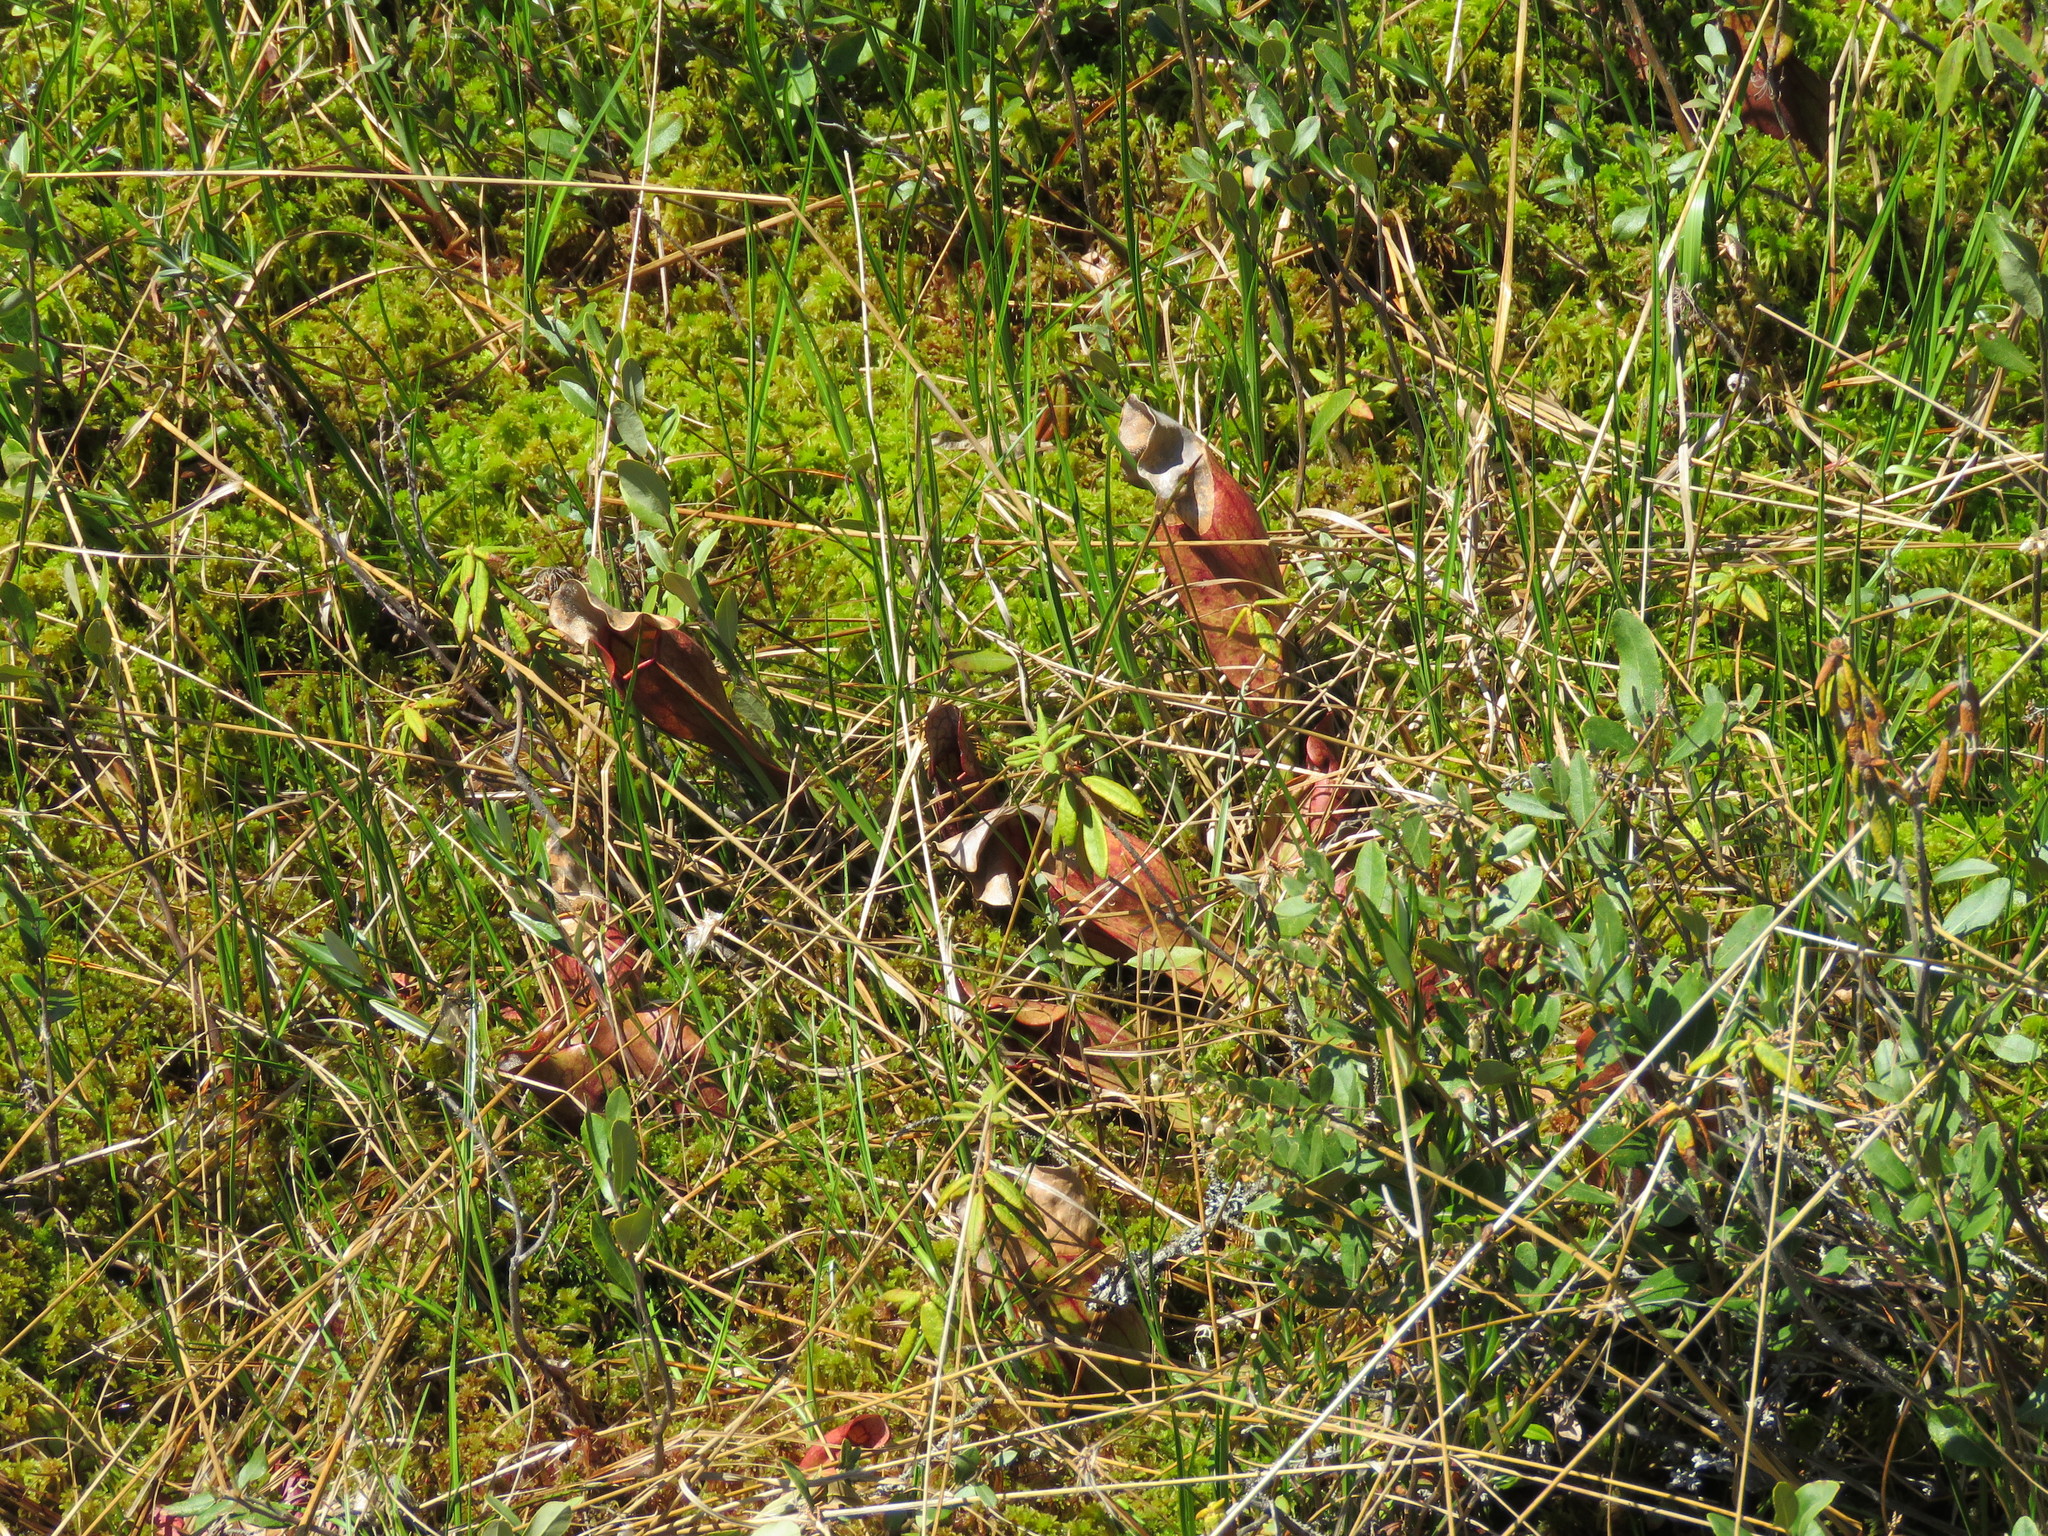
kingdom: Plantae
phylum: Tracheophyta
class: Magnoliopsida
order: Ericales
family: Sarraceniaceae
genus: Sarracenia
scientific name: Sarracenia purpurea
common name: Pitcherplant
